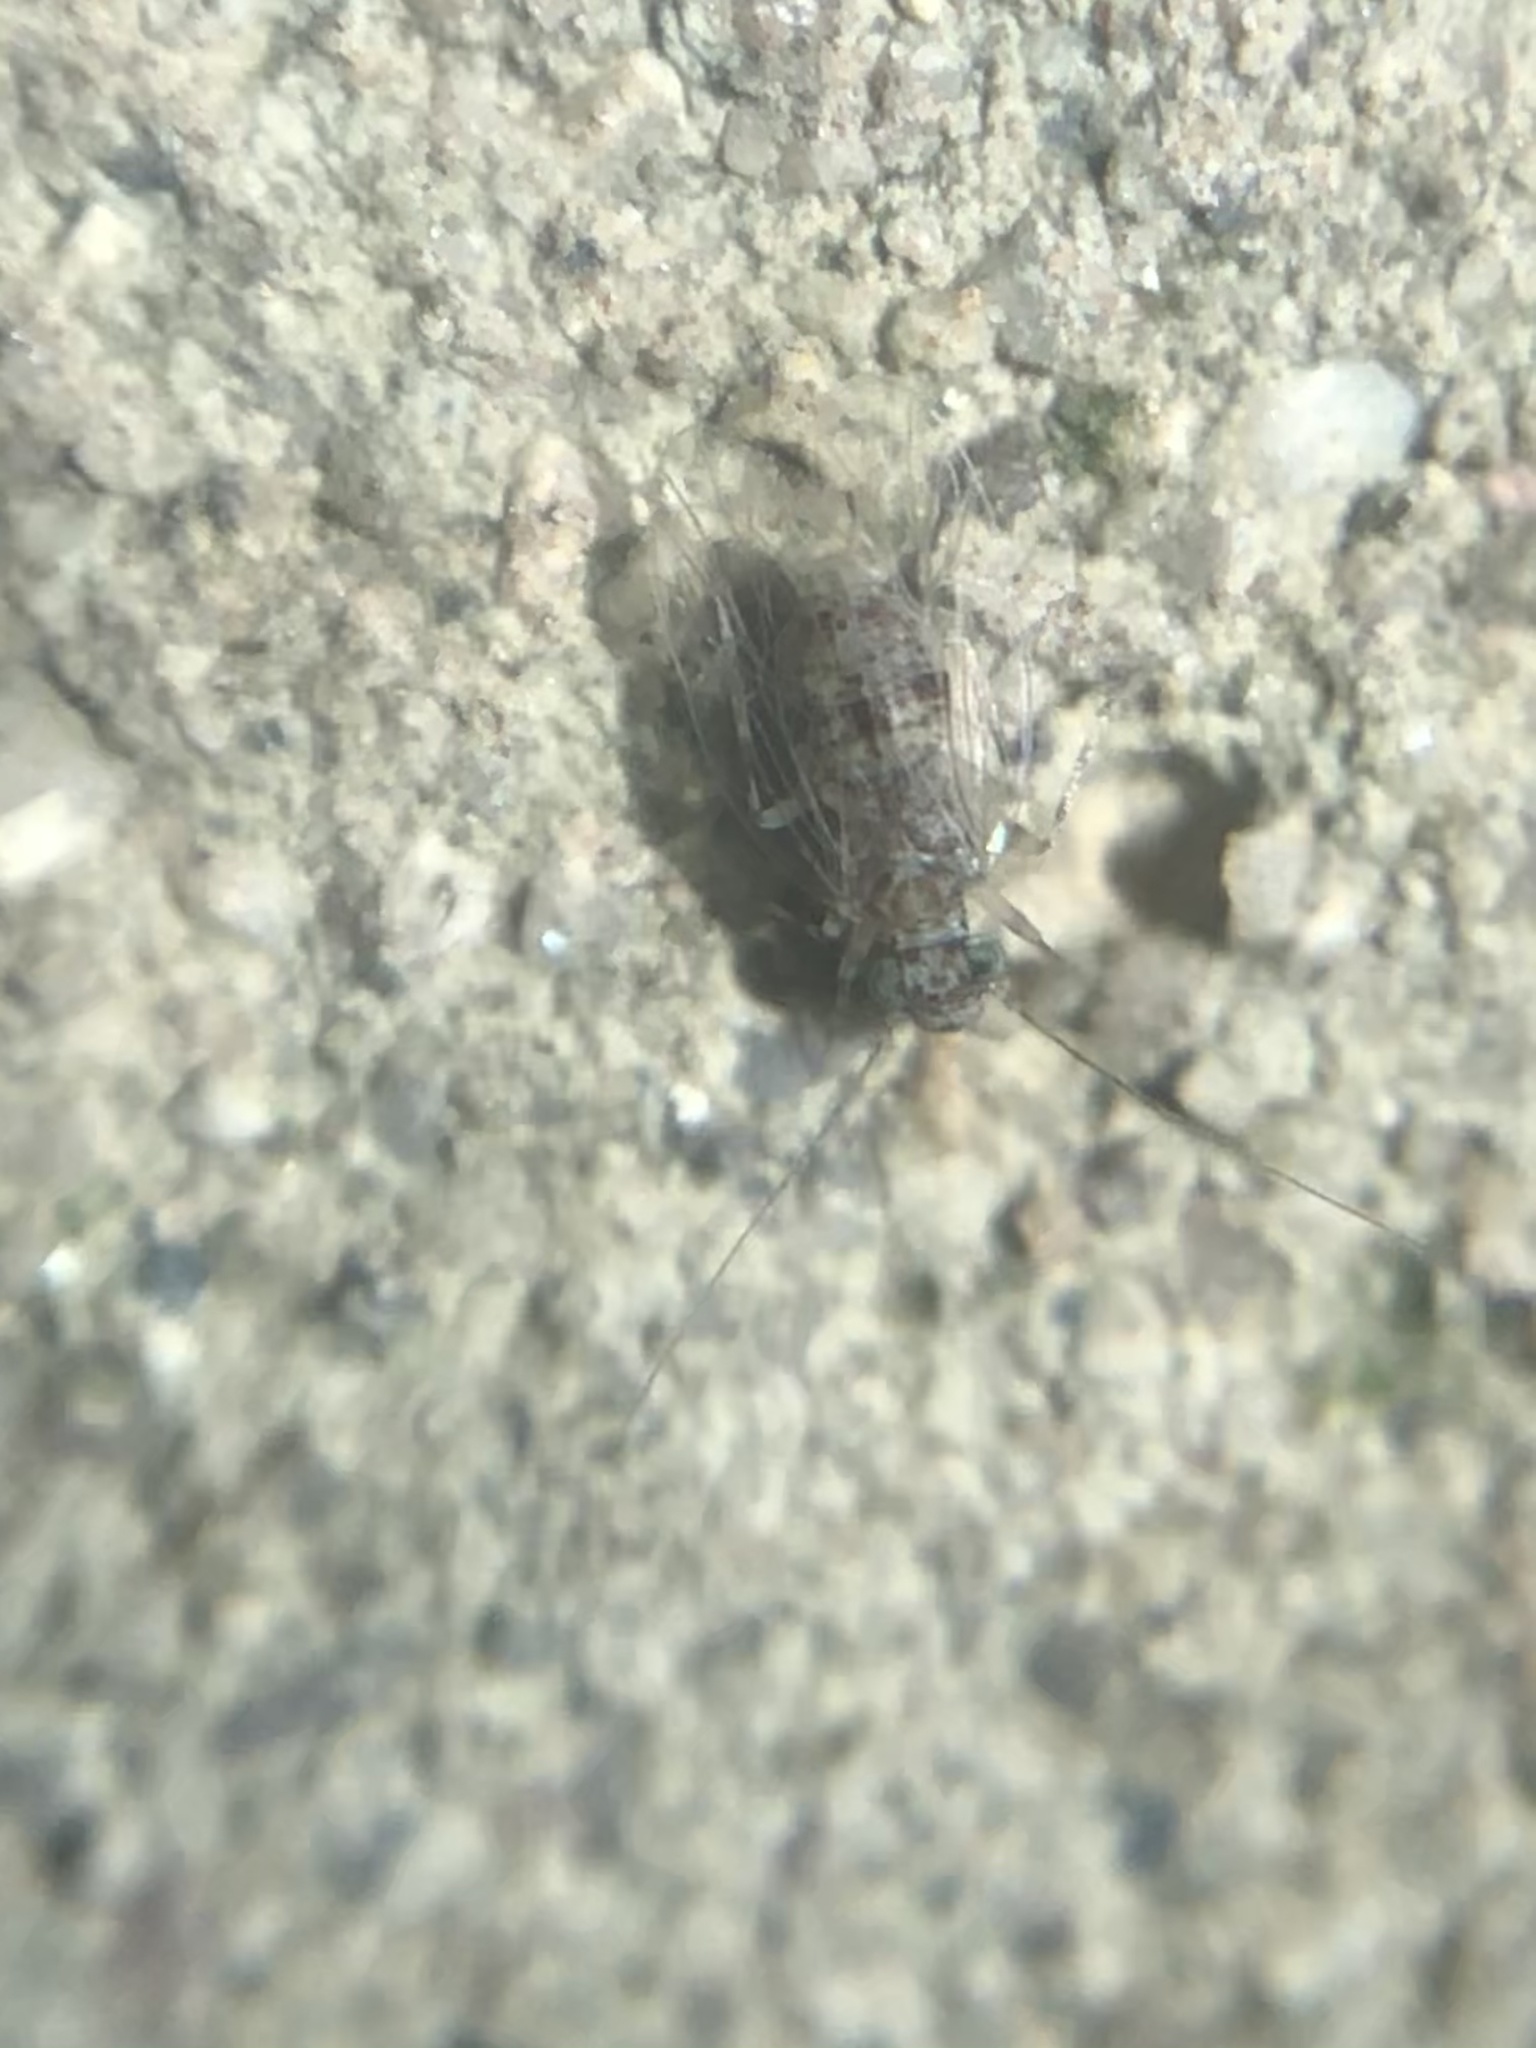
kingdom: Animalia
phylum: Arthropoda
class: Insecta
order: Psocodea
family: Psyllipsocidae
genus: Psyllipsocus
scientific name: Psyllipsocus decoratus
